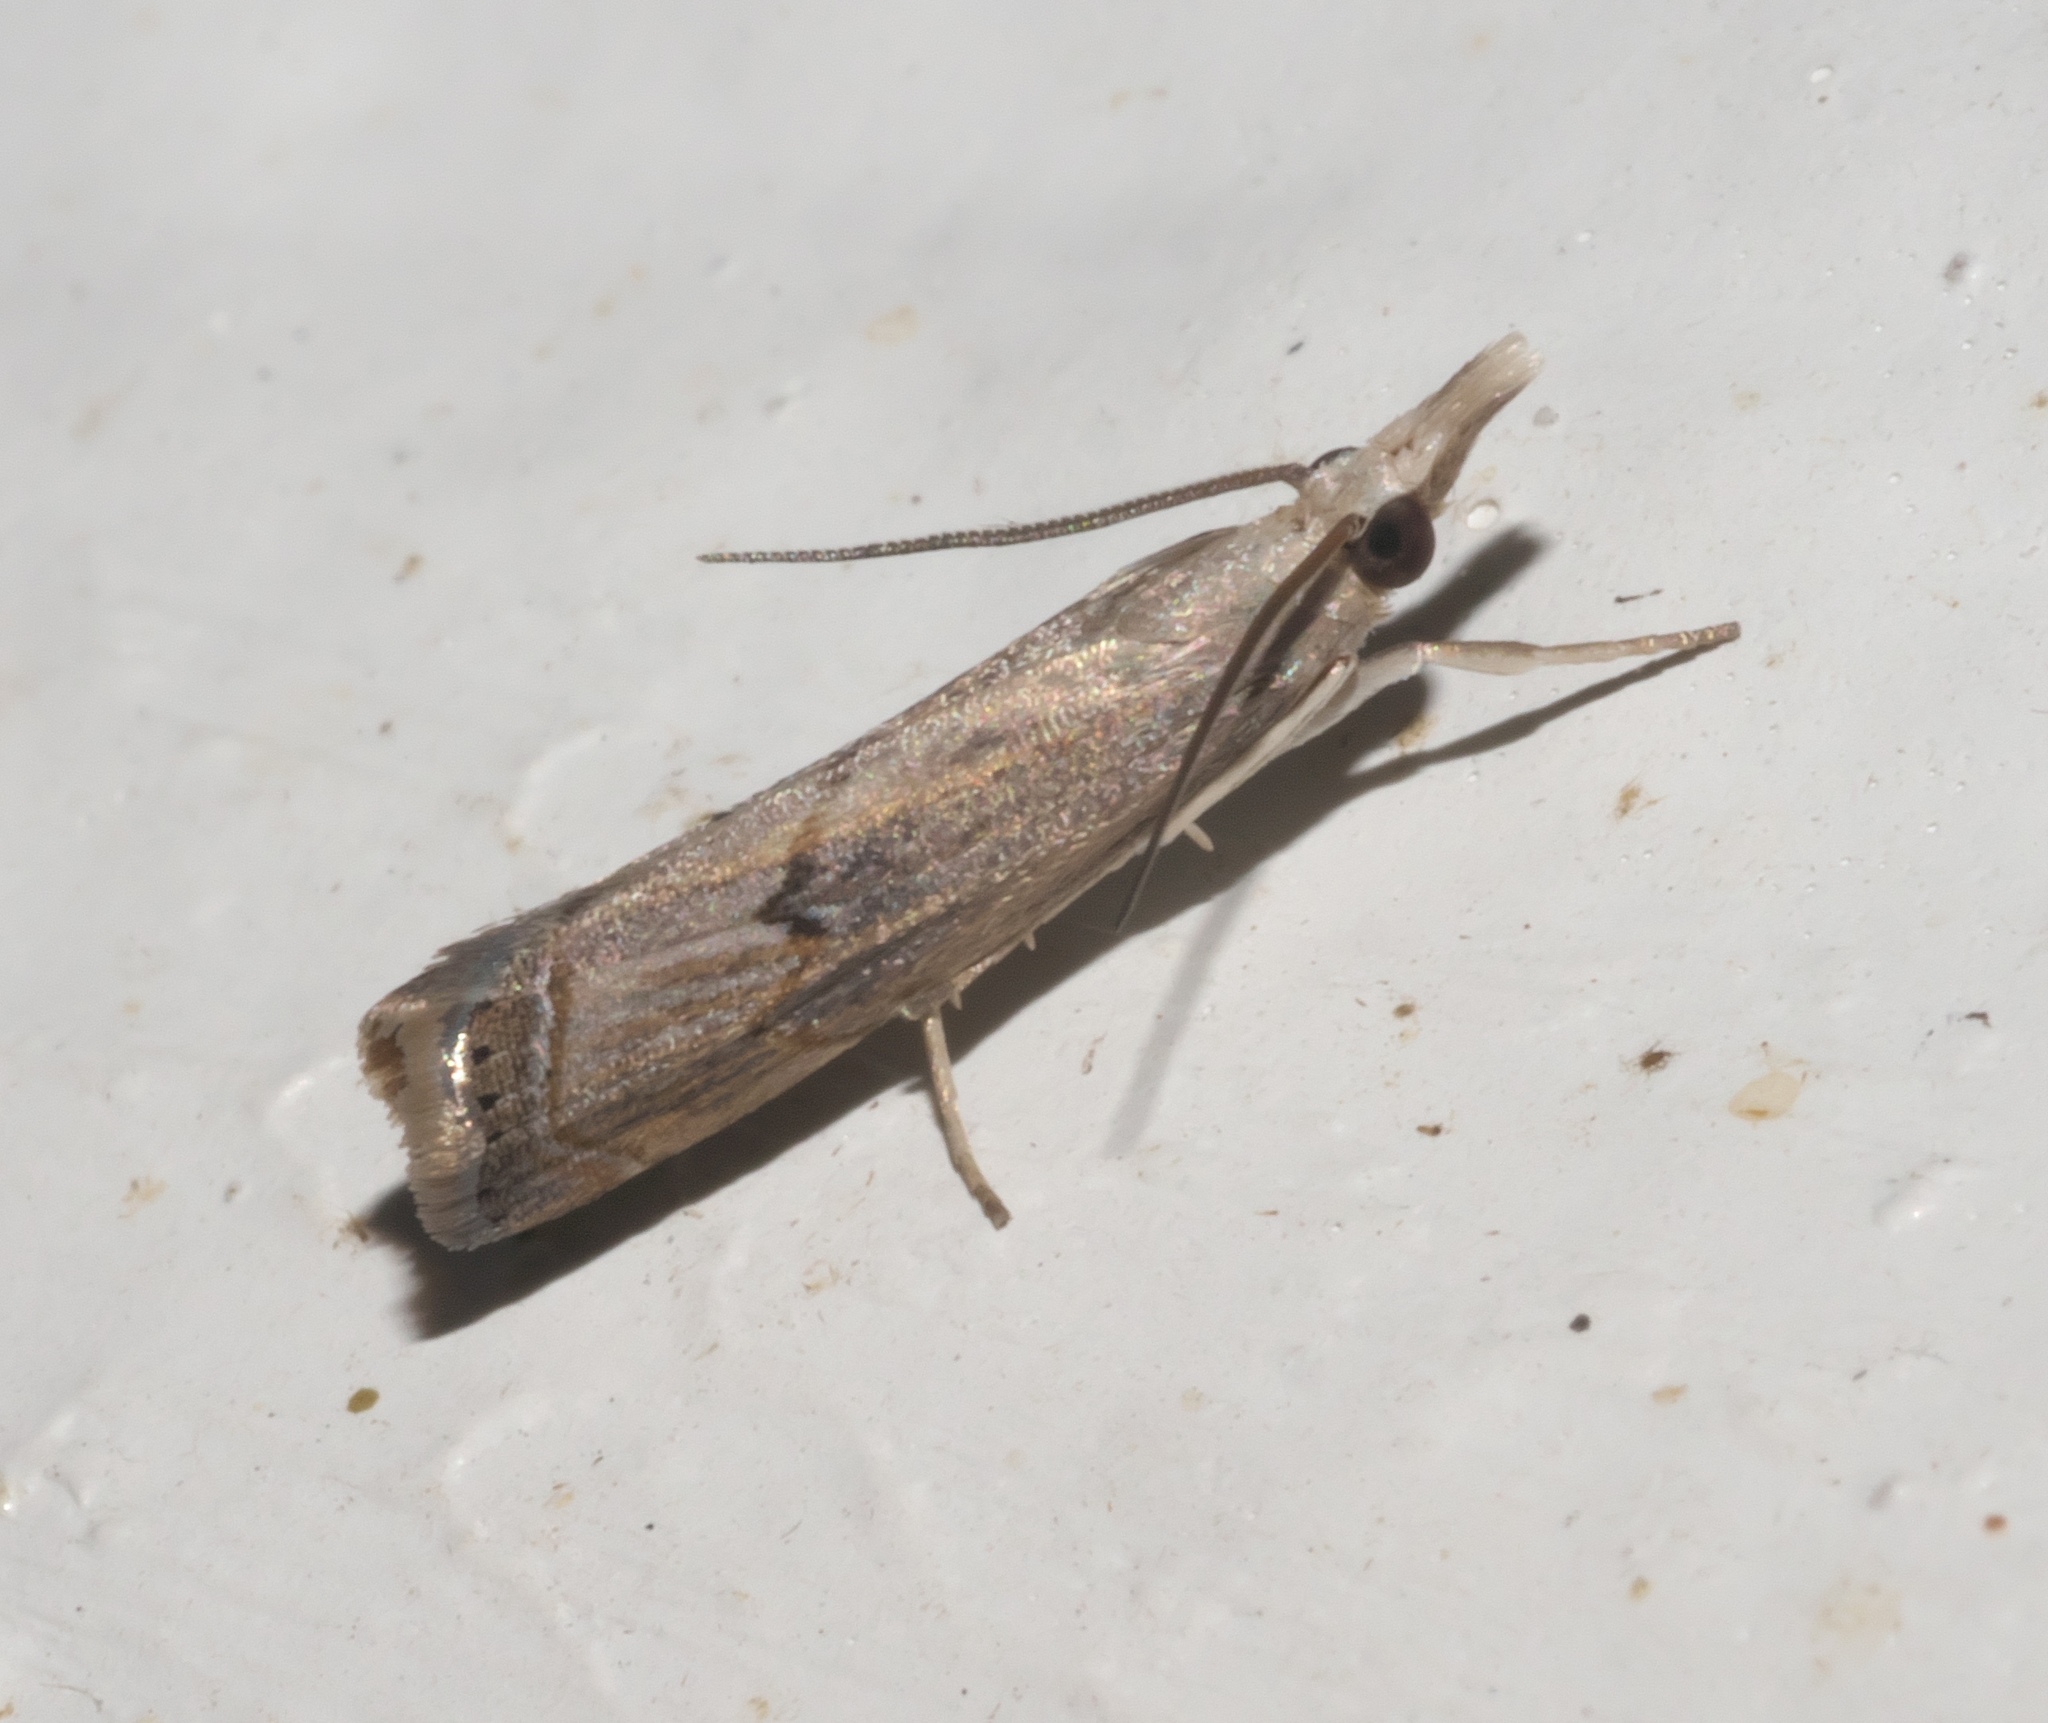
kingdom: Animalia
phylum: Arthropoda
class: Insecta
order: Lepidoptera
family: Crambidae
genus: Parapediasia
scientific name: Parapediasia teterellus
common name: Bluegrass webworm moth
